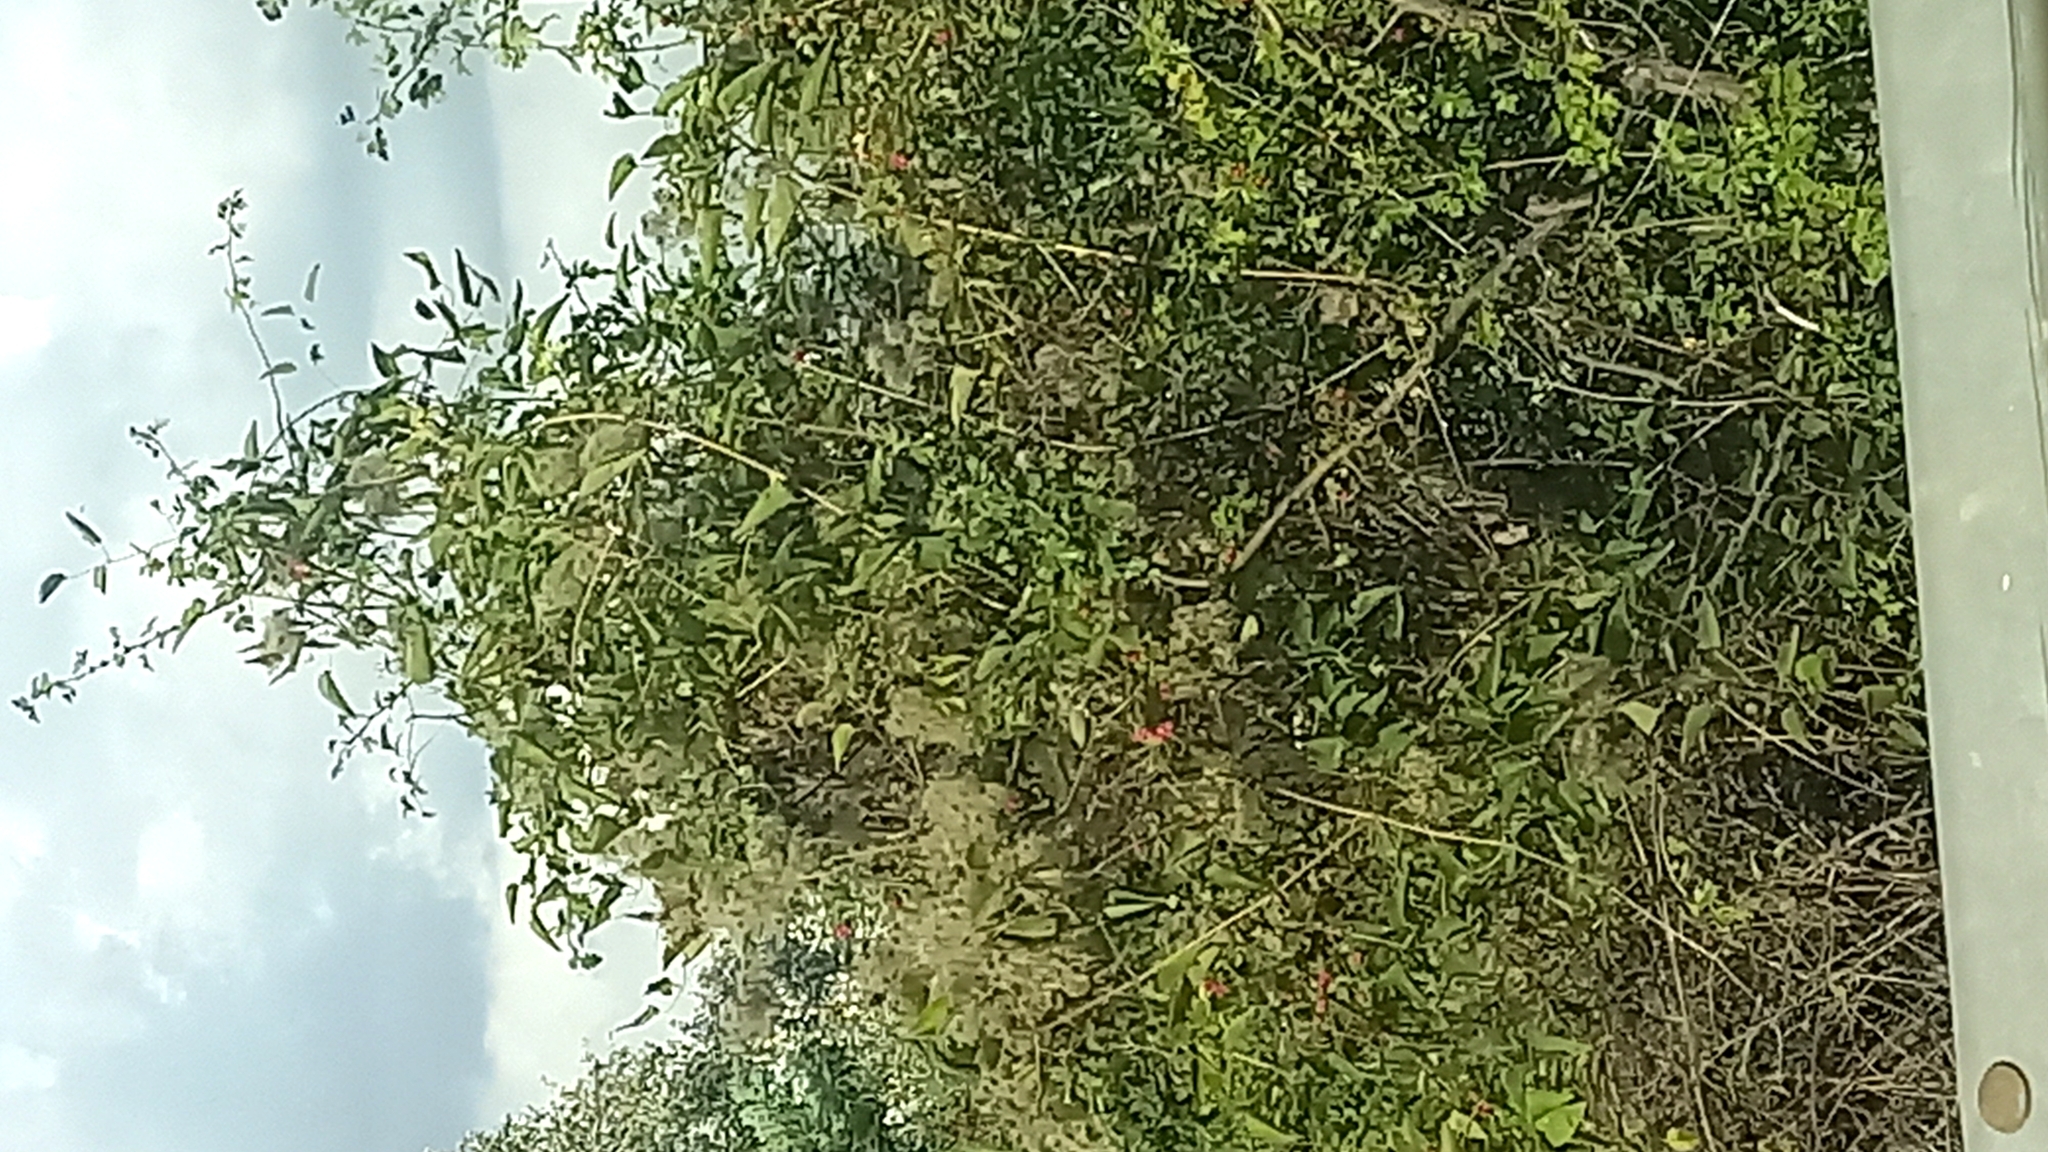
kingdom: Plantae
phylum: Tracheophyta
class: Magnoliopsida
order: Ranunculales
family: Ranunculaceae
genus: Clematis
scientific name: Clematis vitalba
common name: Evergreen clematis
